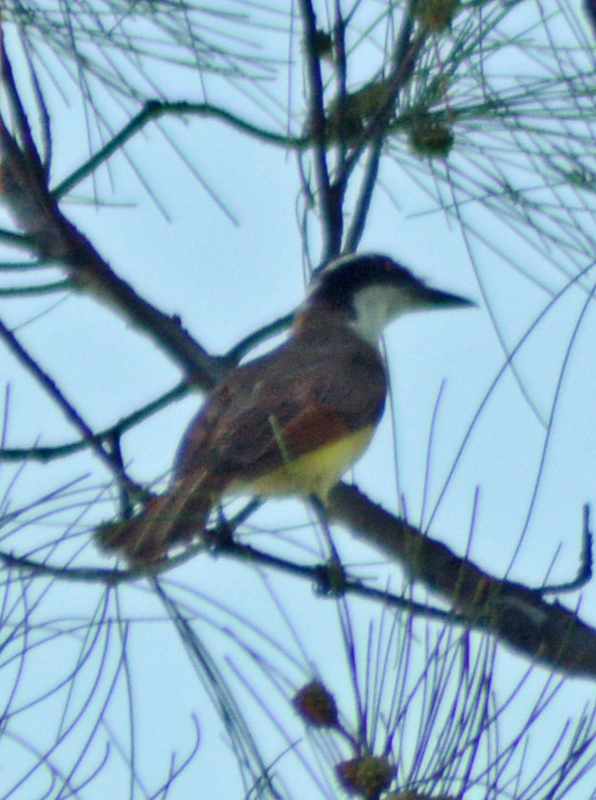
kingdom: Animalia
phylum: Chordata
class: Aves
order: Passeriformes
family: Tyrannidae
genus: Pitangus
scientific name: Pitangus sulphuratus
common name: Great kiskadee
